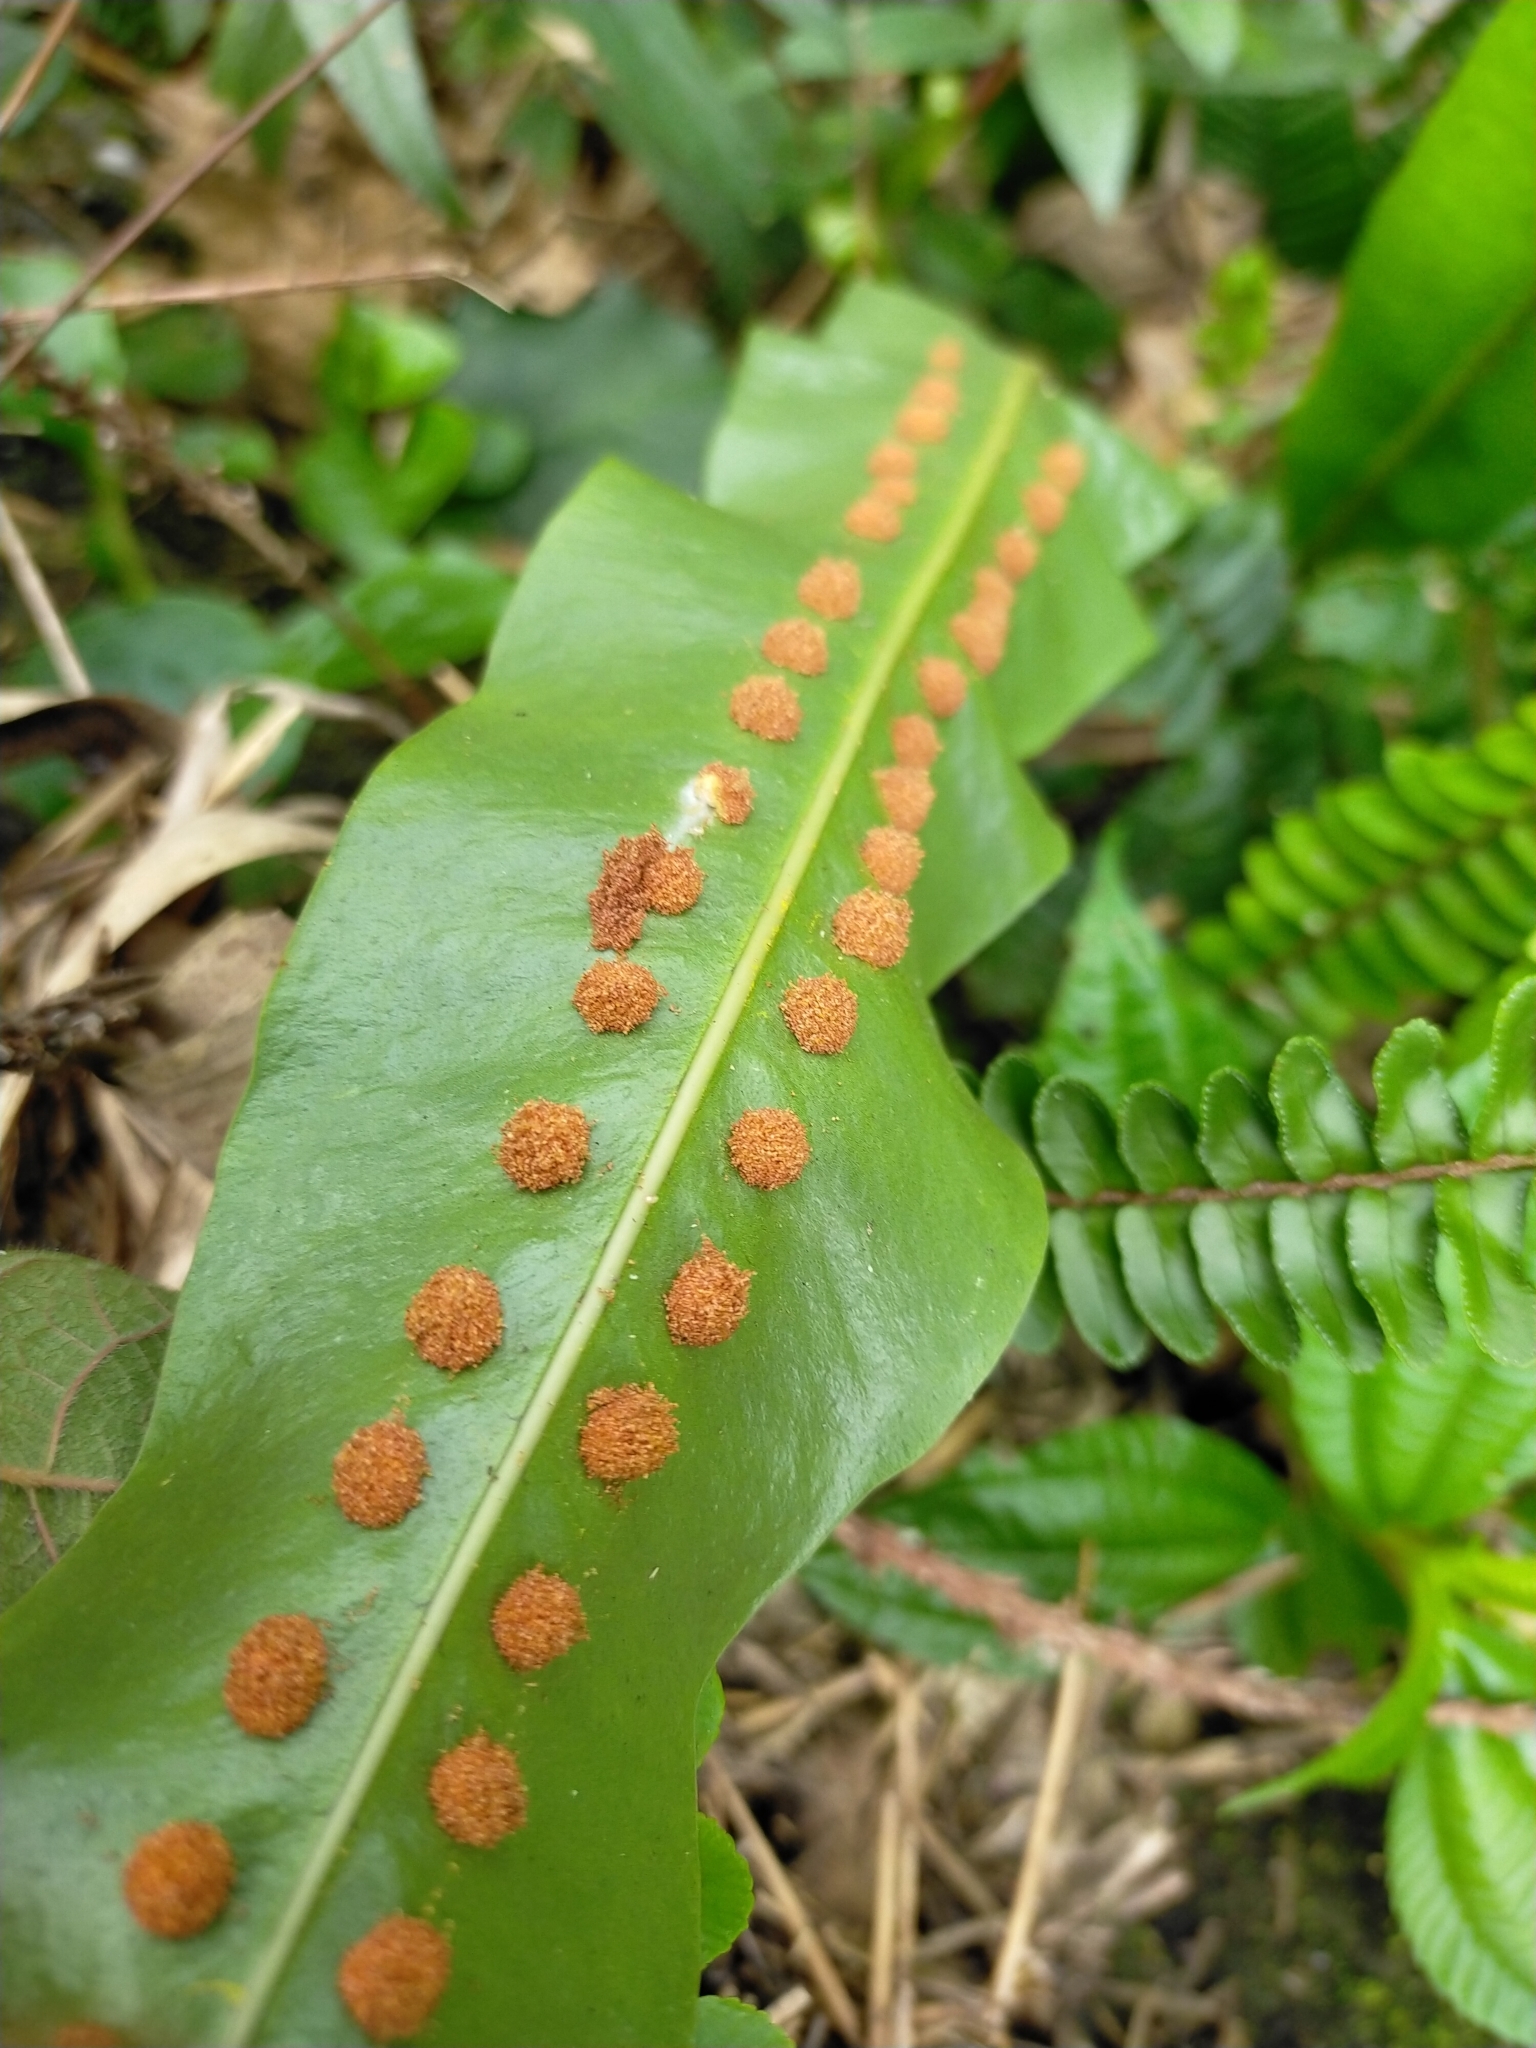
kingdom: Plantae
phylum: Tracheophyta
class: Polypodiopsida
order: Polypodiales
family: Polypodiaceae
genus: Lepisorus
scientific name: Lepisorus fortuni
